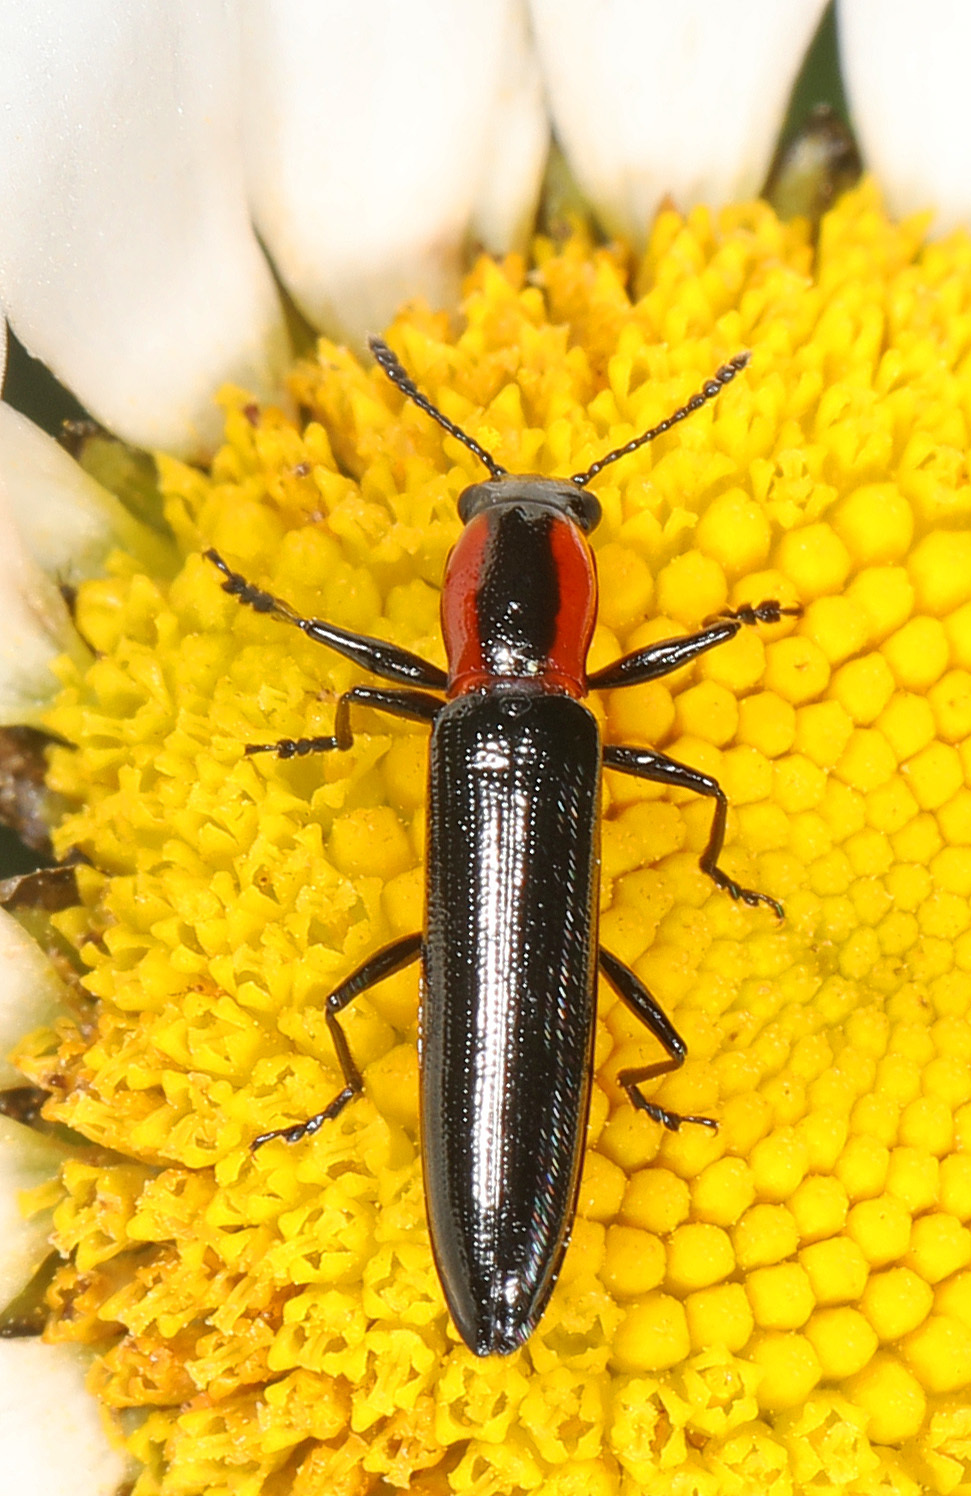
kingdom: Animalia
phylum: Arthropoda
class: Insecta
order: Coleoptera
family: Erotylidae
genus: Acropteroxys
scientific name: Acropteroxys gracilis
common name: Slender lizard beetle
